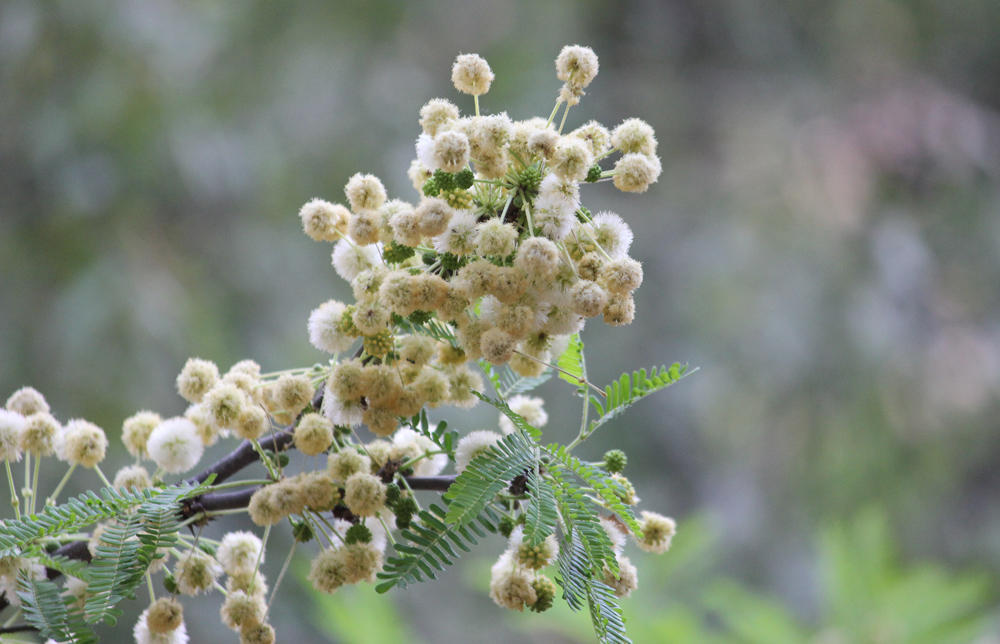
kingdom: Plantae
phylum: Tracheophyta
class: Magnoliopsida
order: Fabales
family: Fabaceae
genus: Vachellia
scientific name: Vachellia robusta
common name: Ankle thorn
